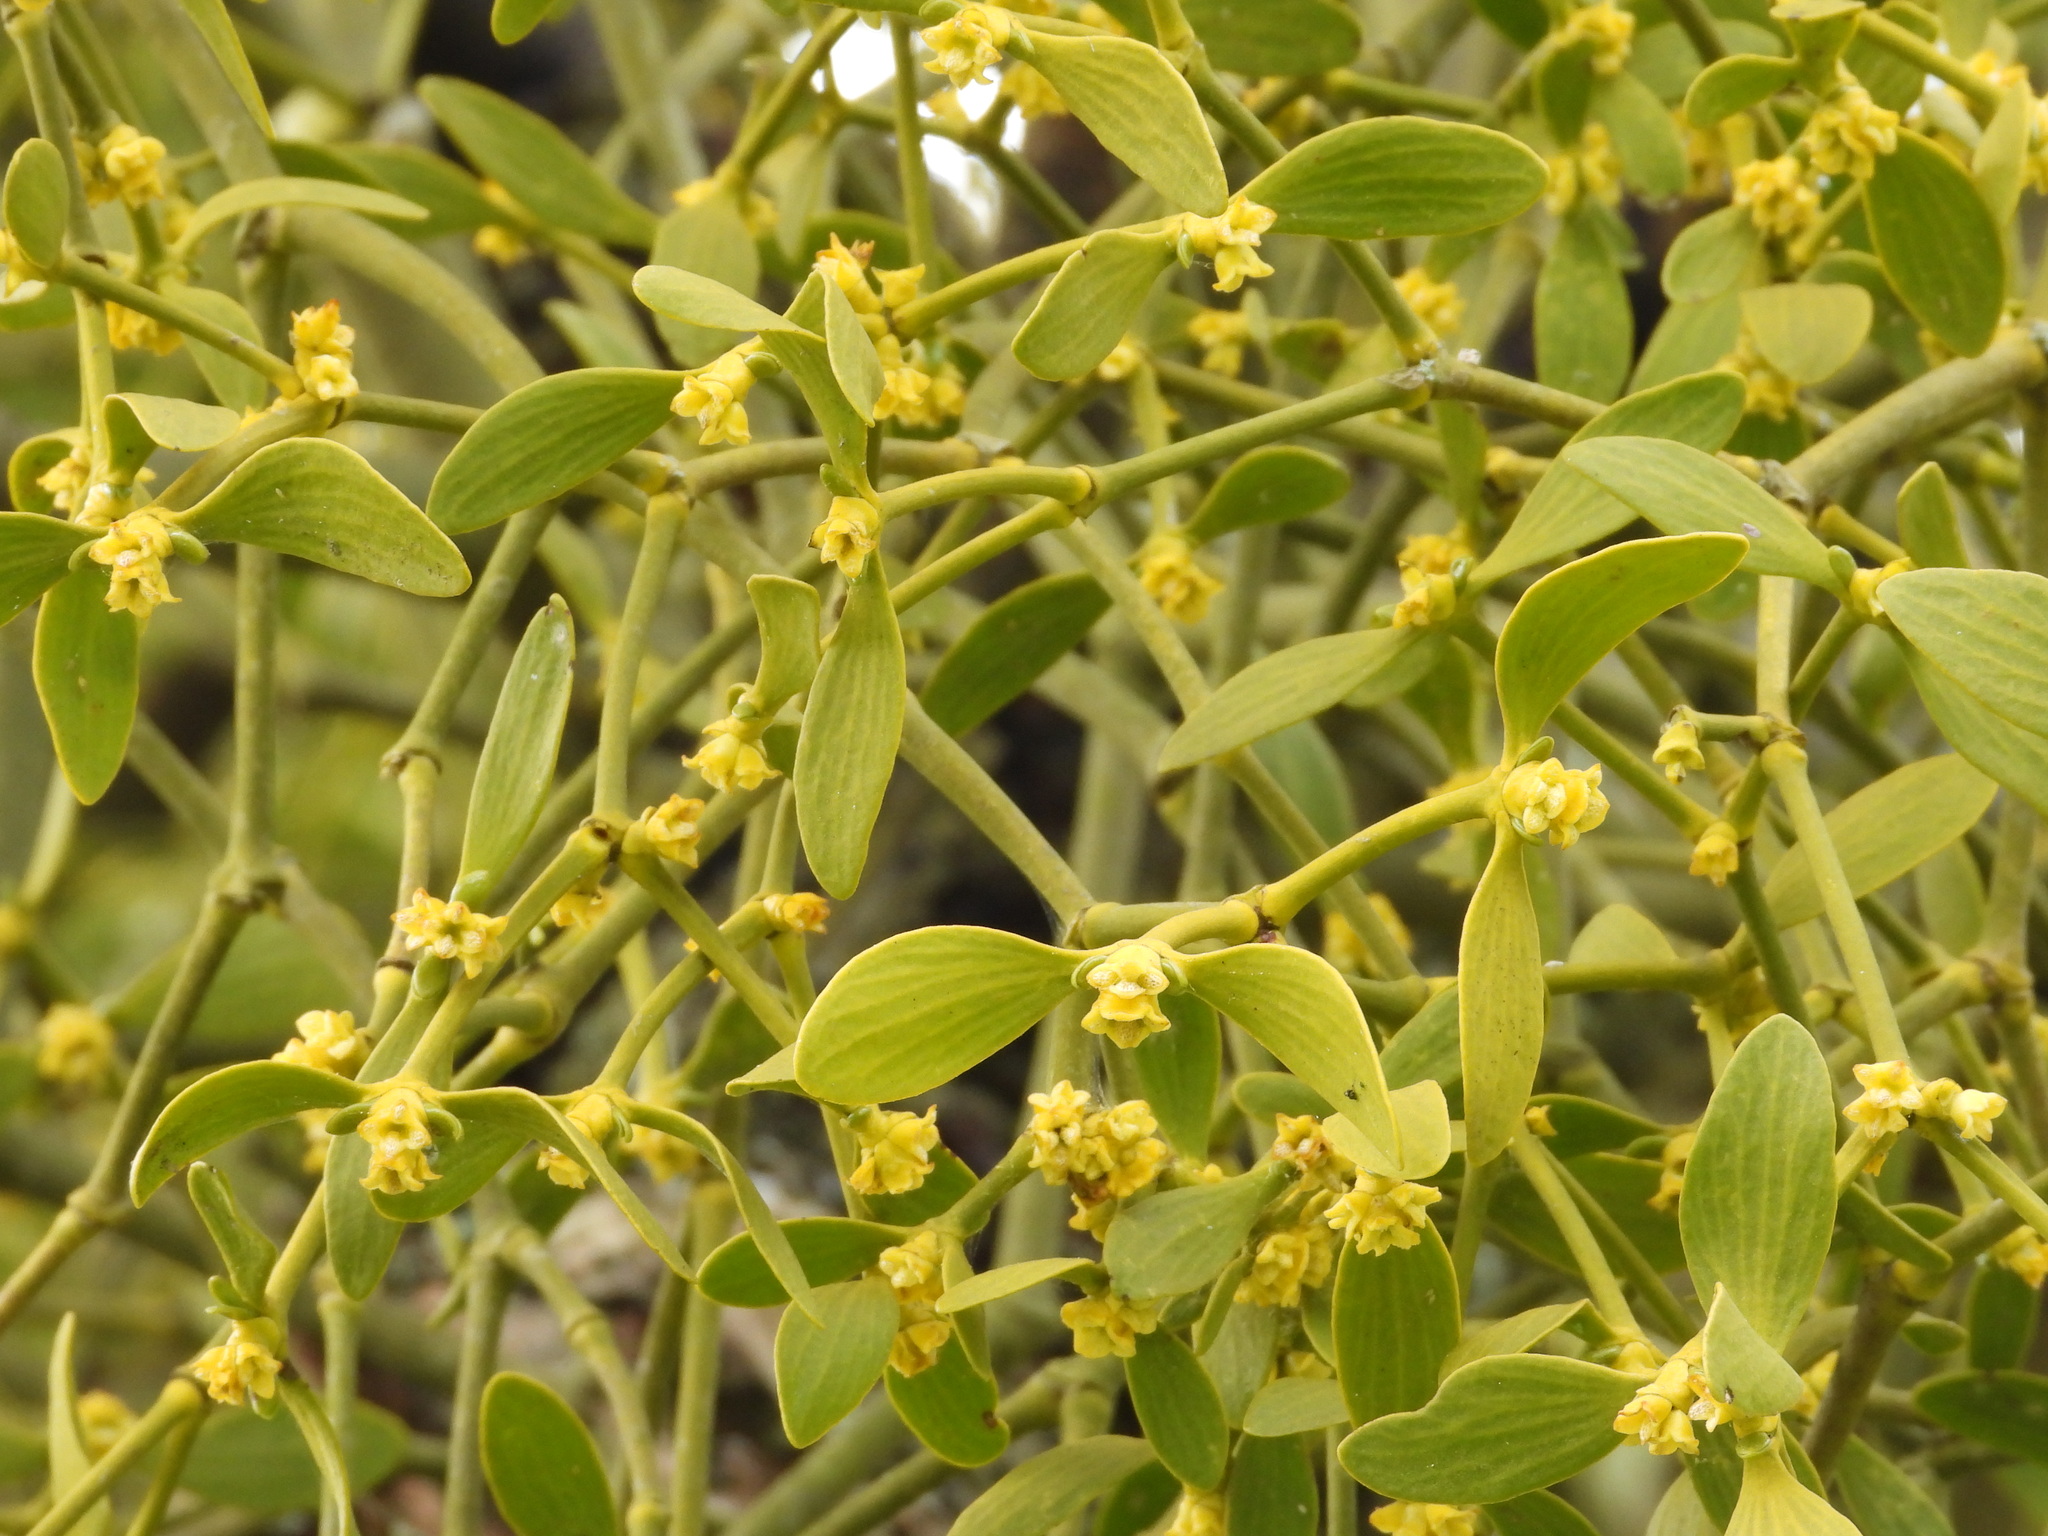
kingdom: Plantae
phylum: Tracheophyta
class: Magnoliopsida
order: Santalales
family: Viscaceae
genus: Viscum
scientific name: Viscum album
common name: Mistletoe
